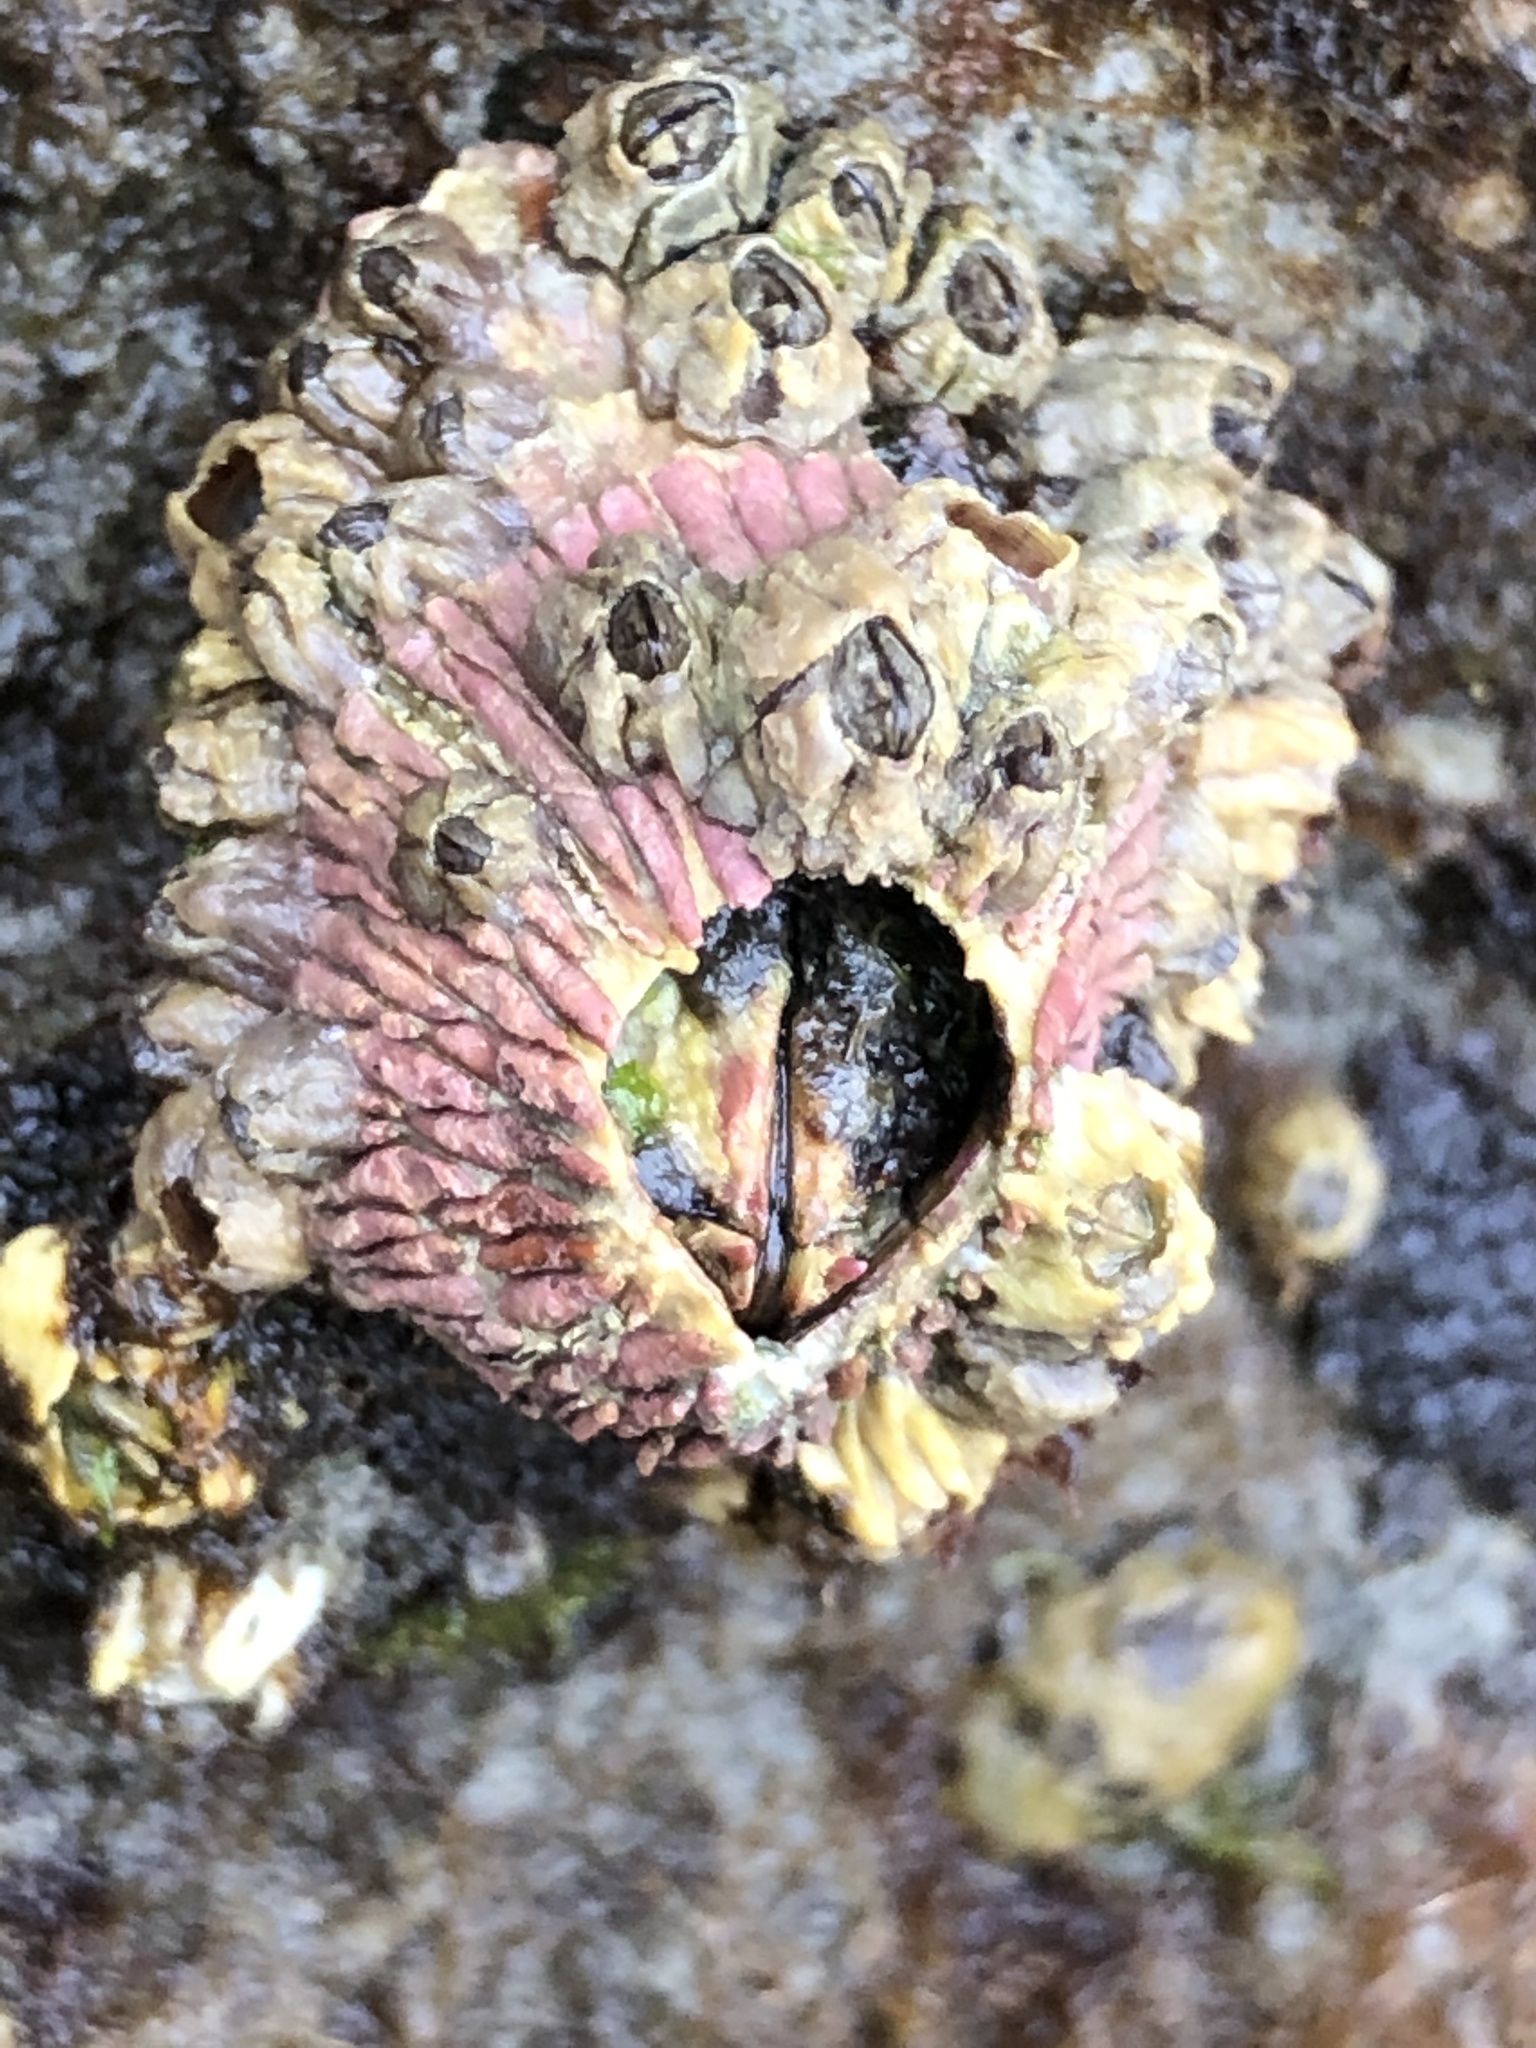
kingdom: Animalia
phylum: Arthropoda
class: Maxillopoda
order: Sessilia
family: Tetraclitidae
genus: Tetraclita
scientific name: Tetraclita rubescens
